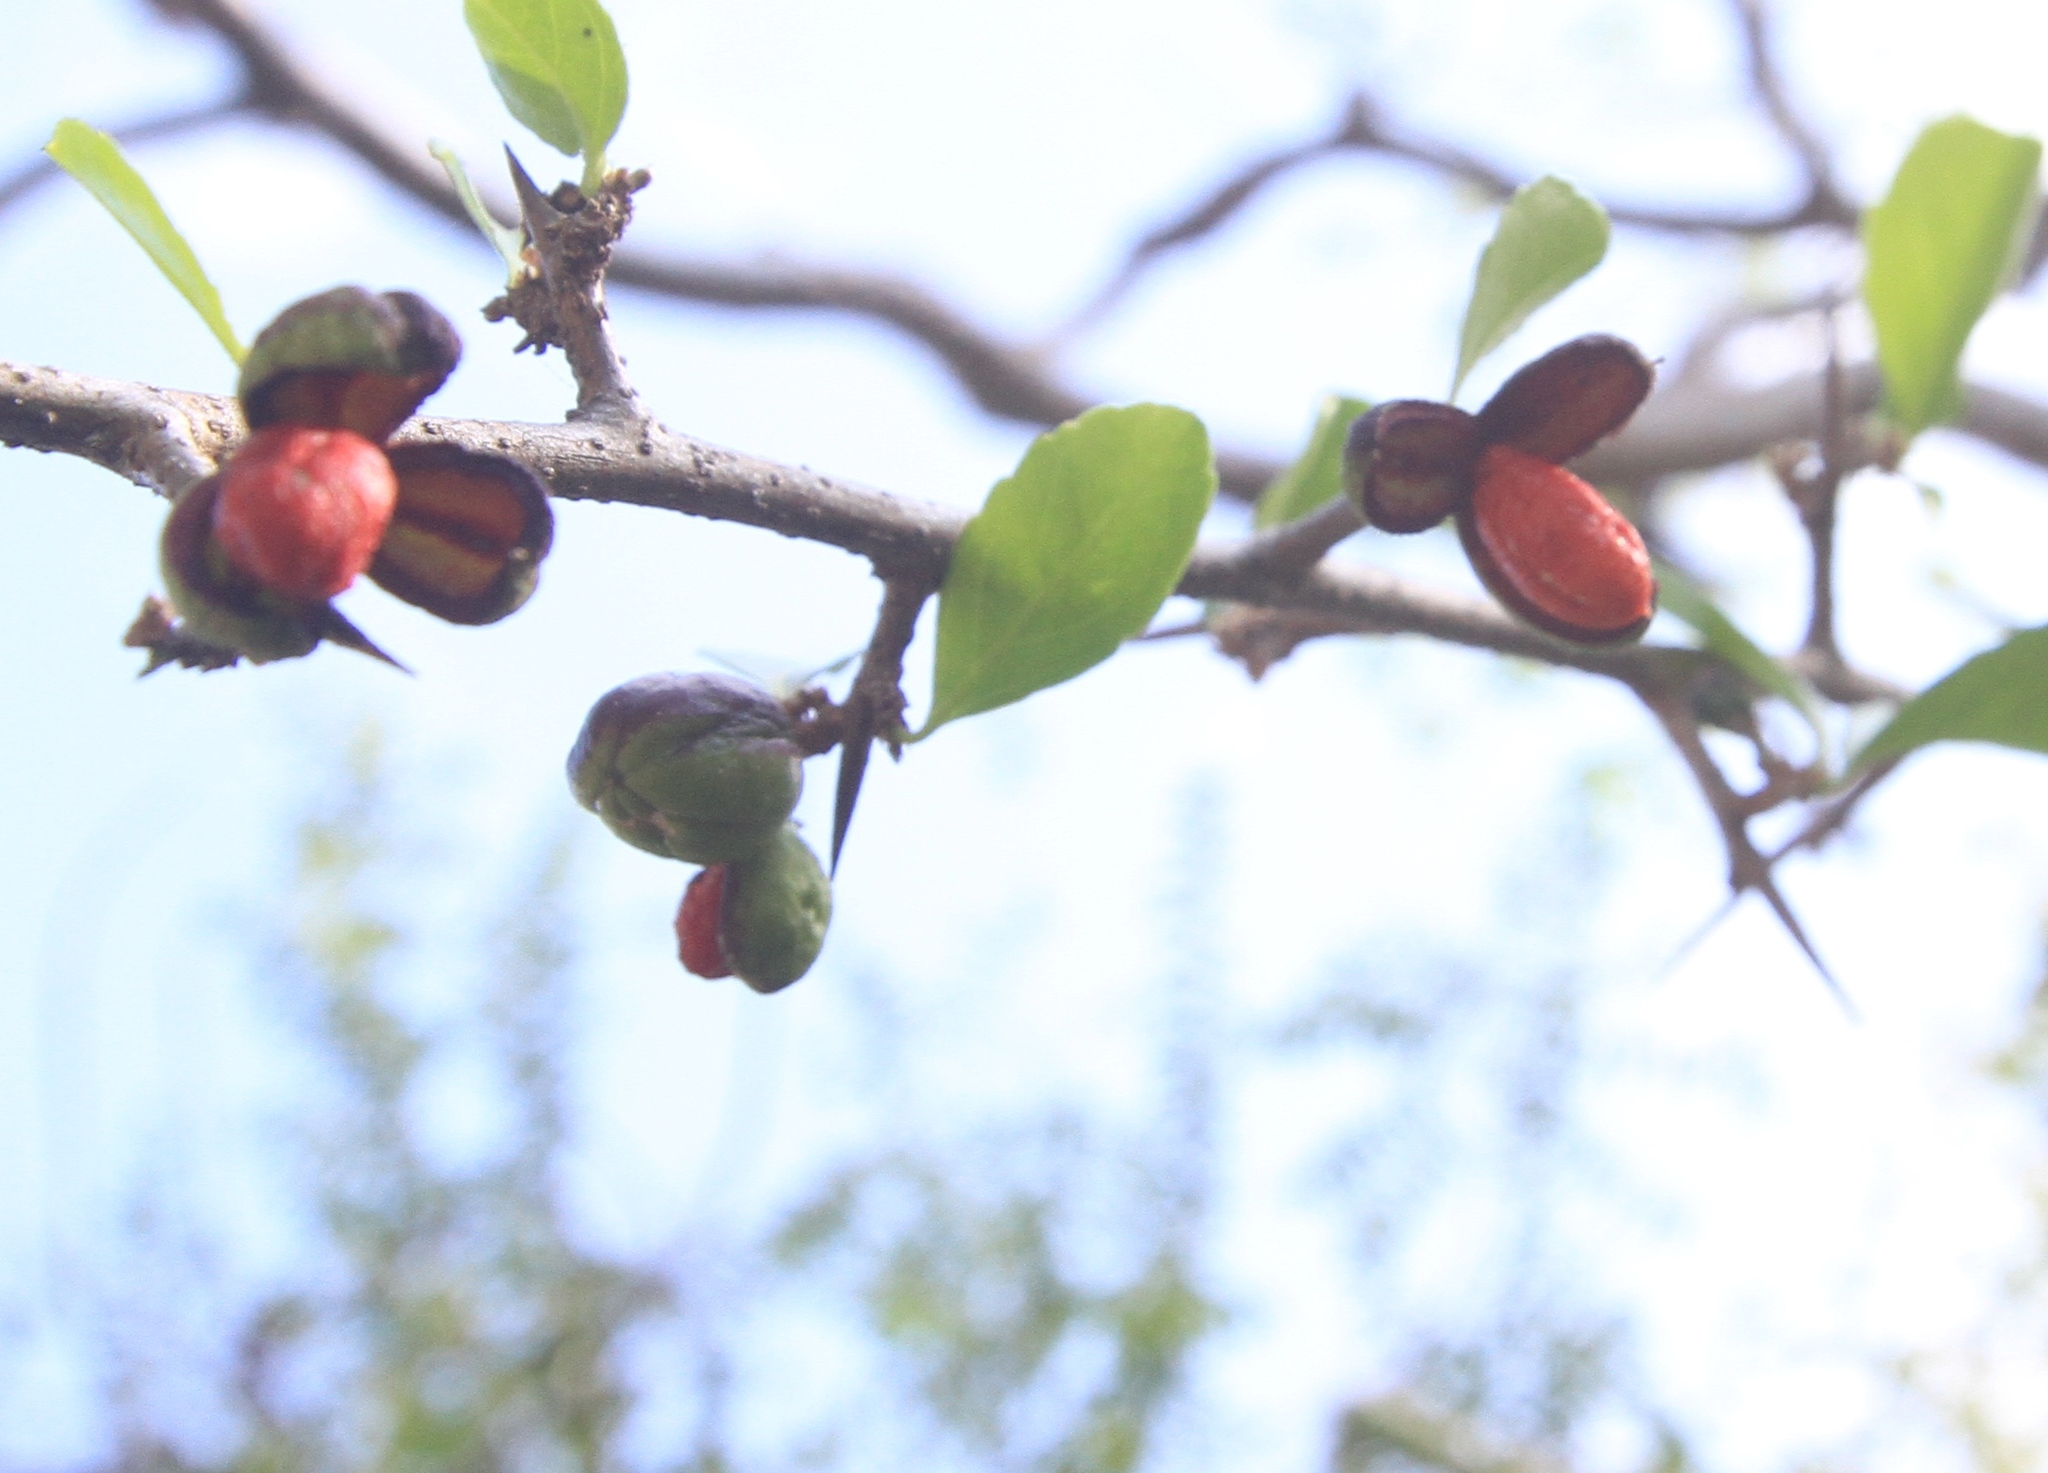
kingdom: Plantae
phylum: Tracheophyta
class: Magnoliopsida
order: Malpighiales
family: Salicaceae
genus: Casearia
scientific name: Casearia aculeata
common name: Cockspur
